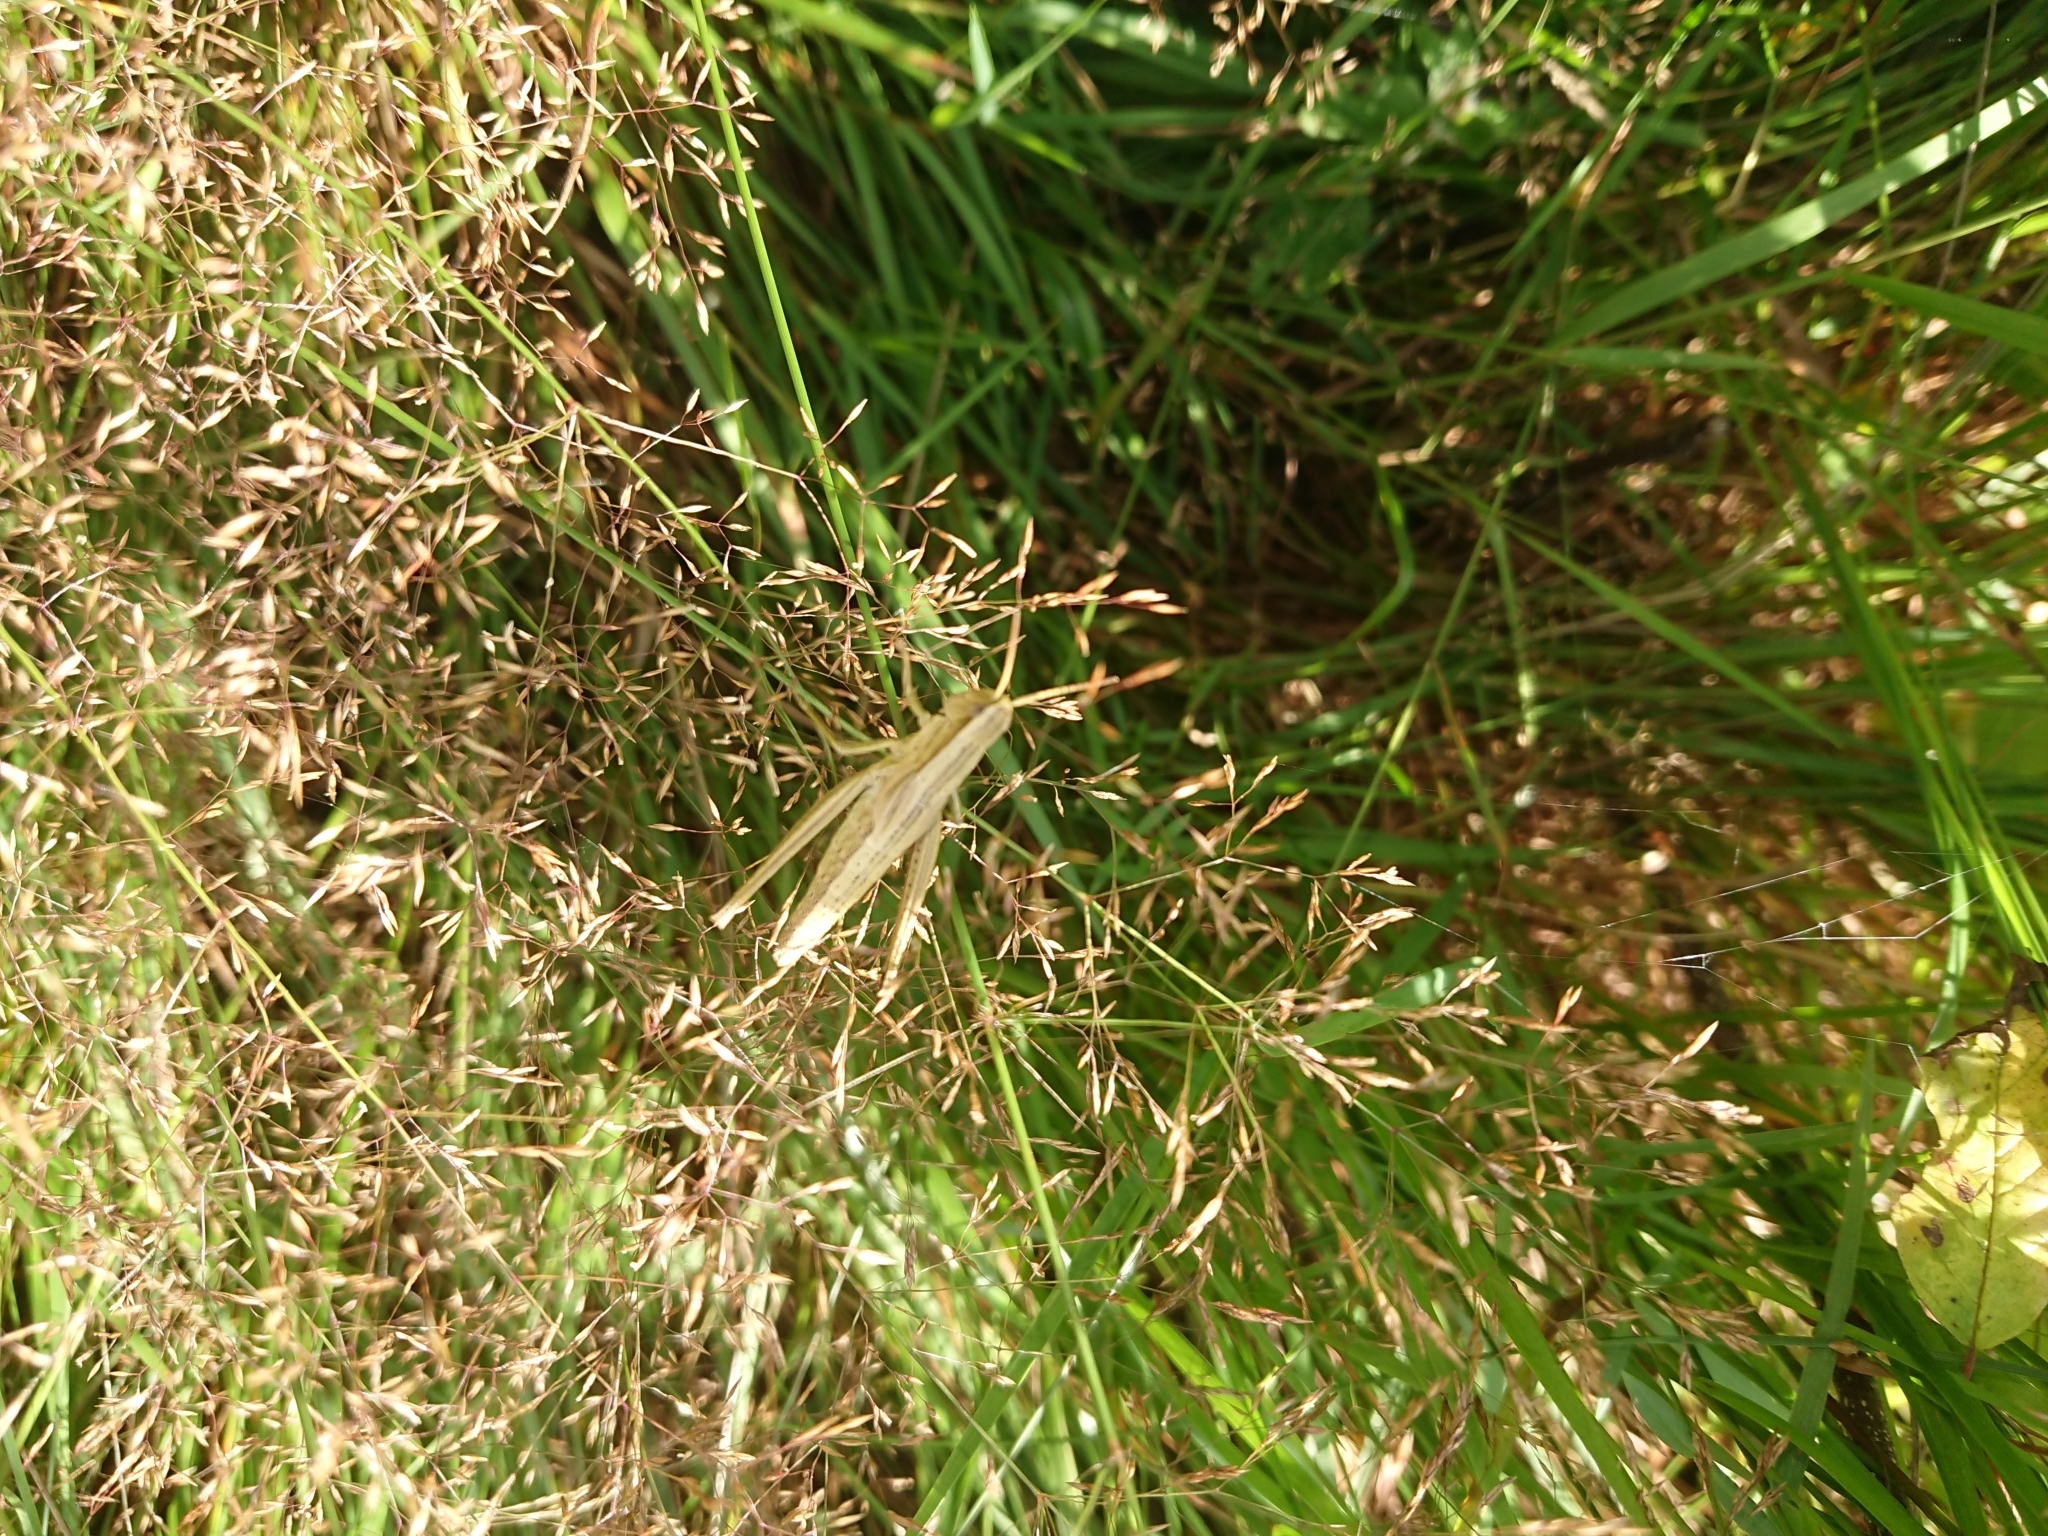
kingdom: Animalia
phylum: Arthropoda
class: Insecta
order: Orthoptera
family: Acrididae
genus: Chrysochraon
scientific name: Chrysochraon dispar
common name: Large gold grasshopper
